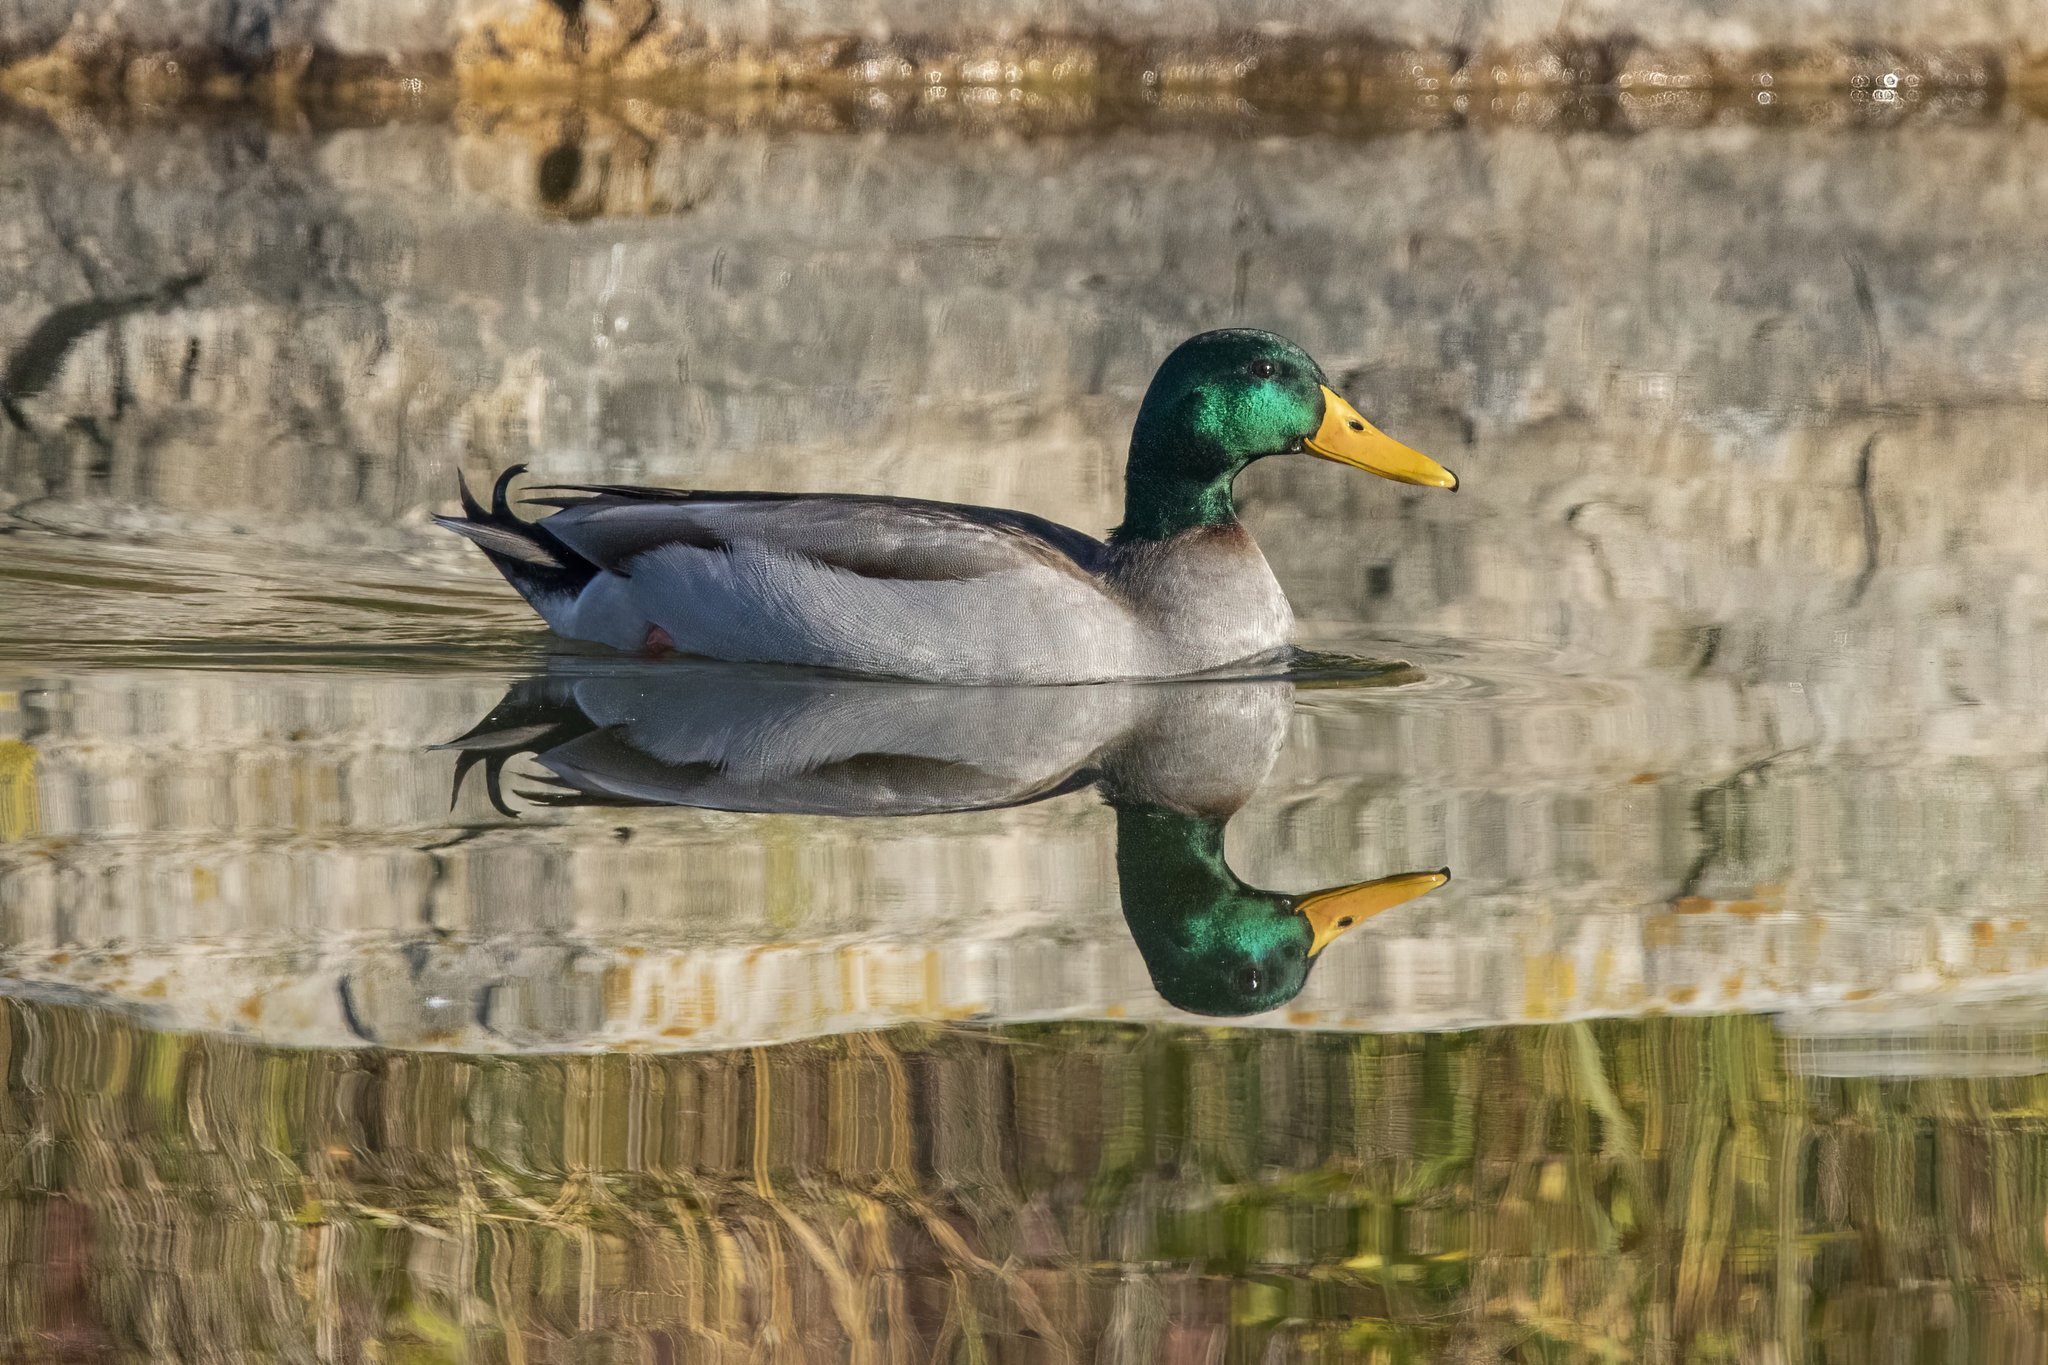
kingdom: Animalia
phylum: Chordata
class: Aves
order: Anseriformes
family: Anatidae
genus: Anas
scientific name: Anas platyrhynchos
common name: Mallard
